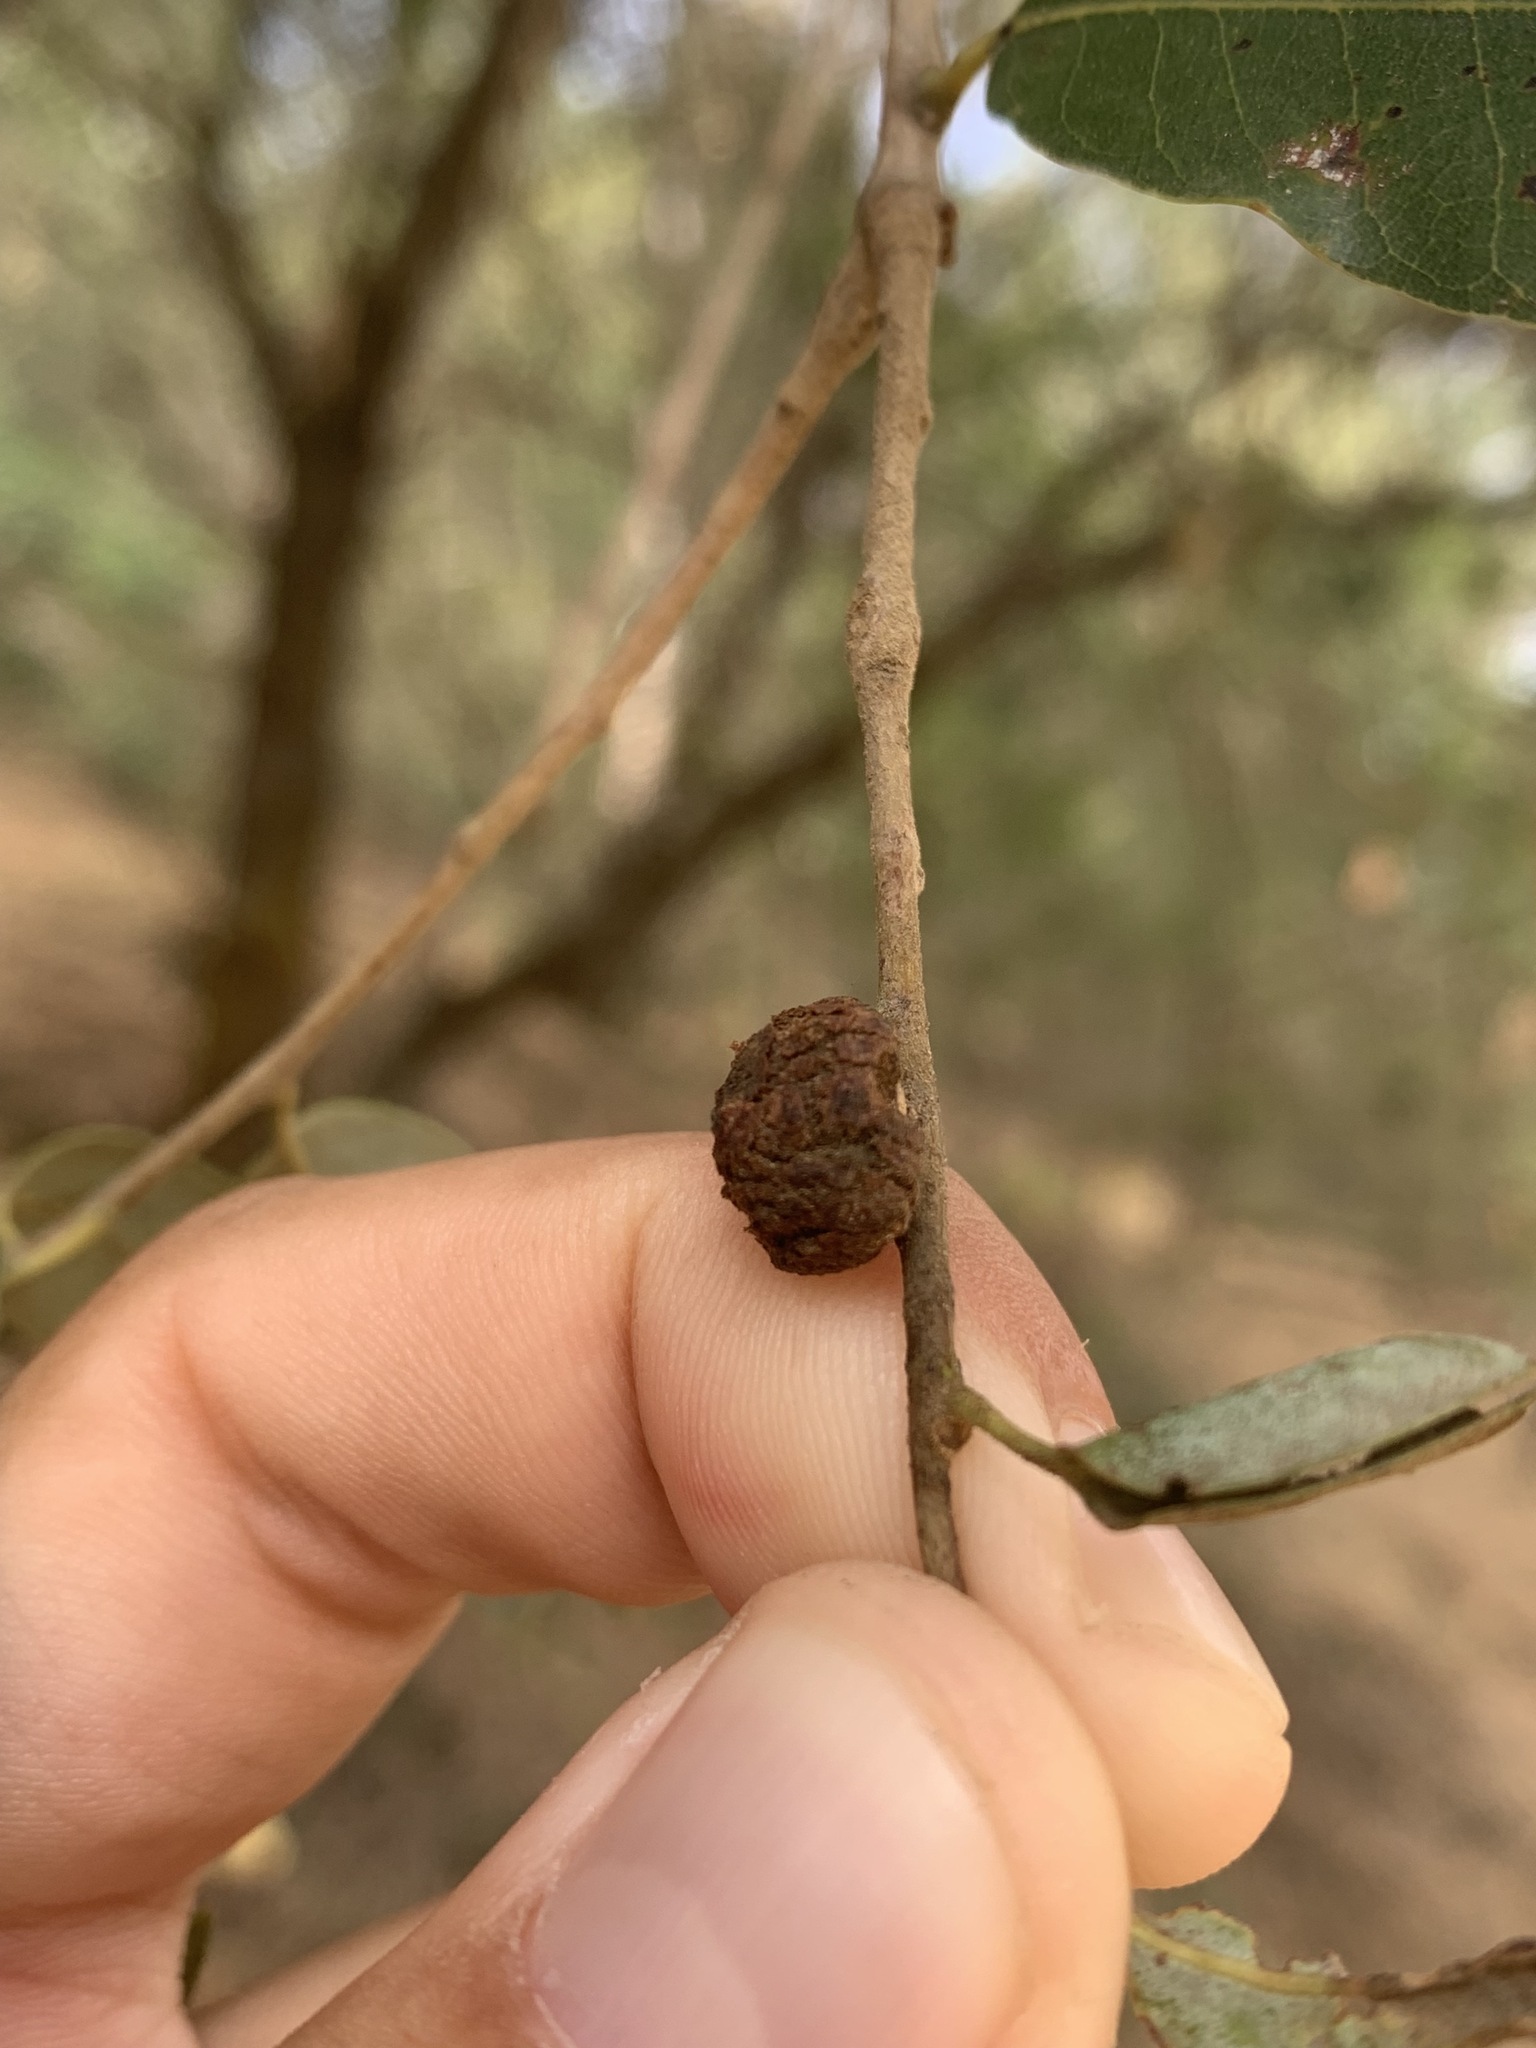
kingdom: Animalia
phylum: Arthropoda
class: Insecta
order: Hymenoptera
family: Cynipidae
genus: Disholandricus
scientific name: Disholandricus
